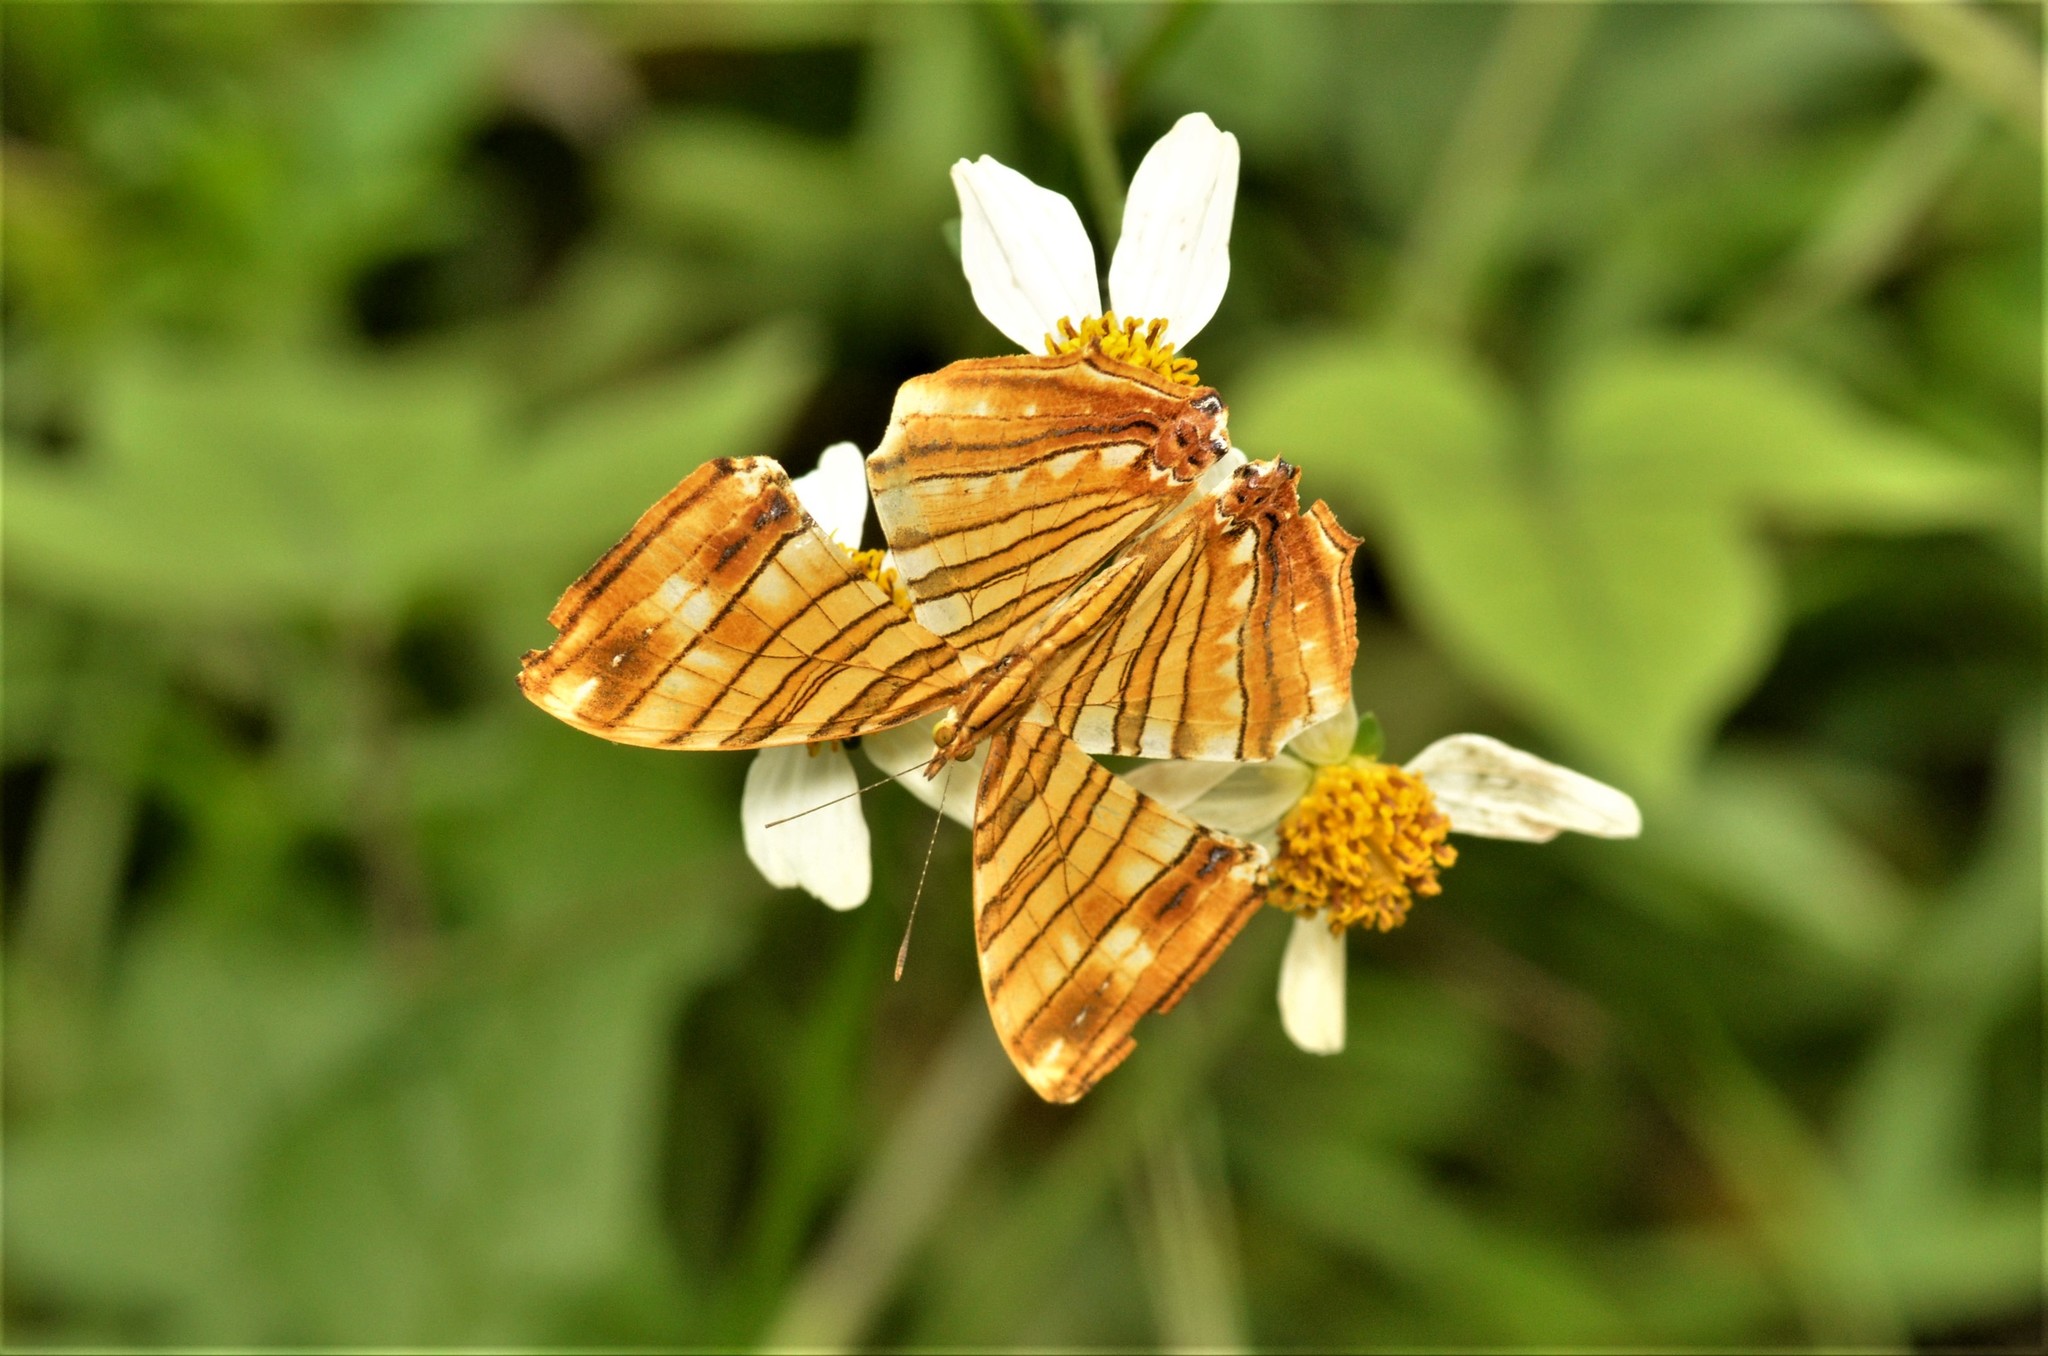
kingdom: Animalia
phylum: Arthropoda
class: Insecta
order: Lepidoptera
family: Nymphalidae
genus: Chersonesia
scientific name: Chersonesia risa
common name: Common maplet
